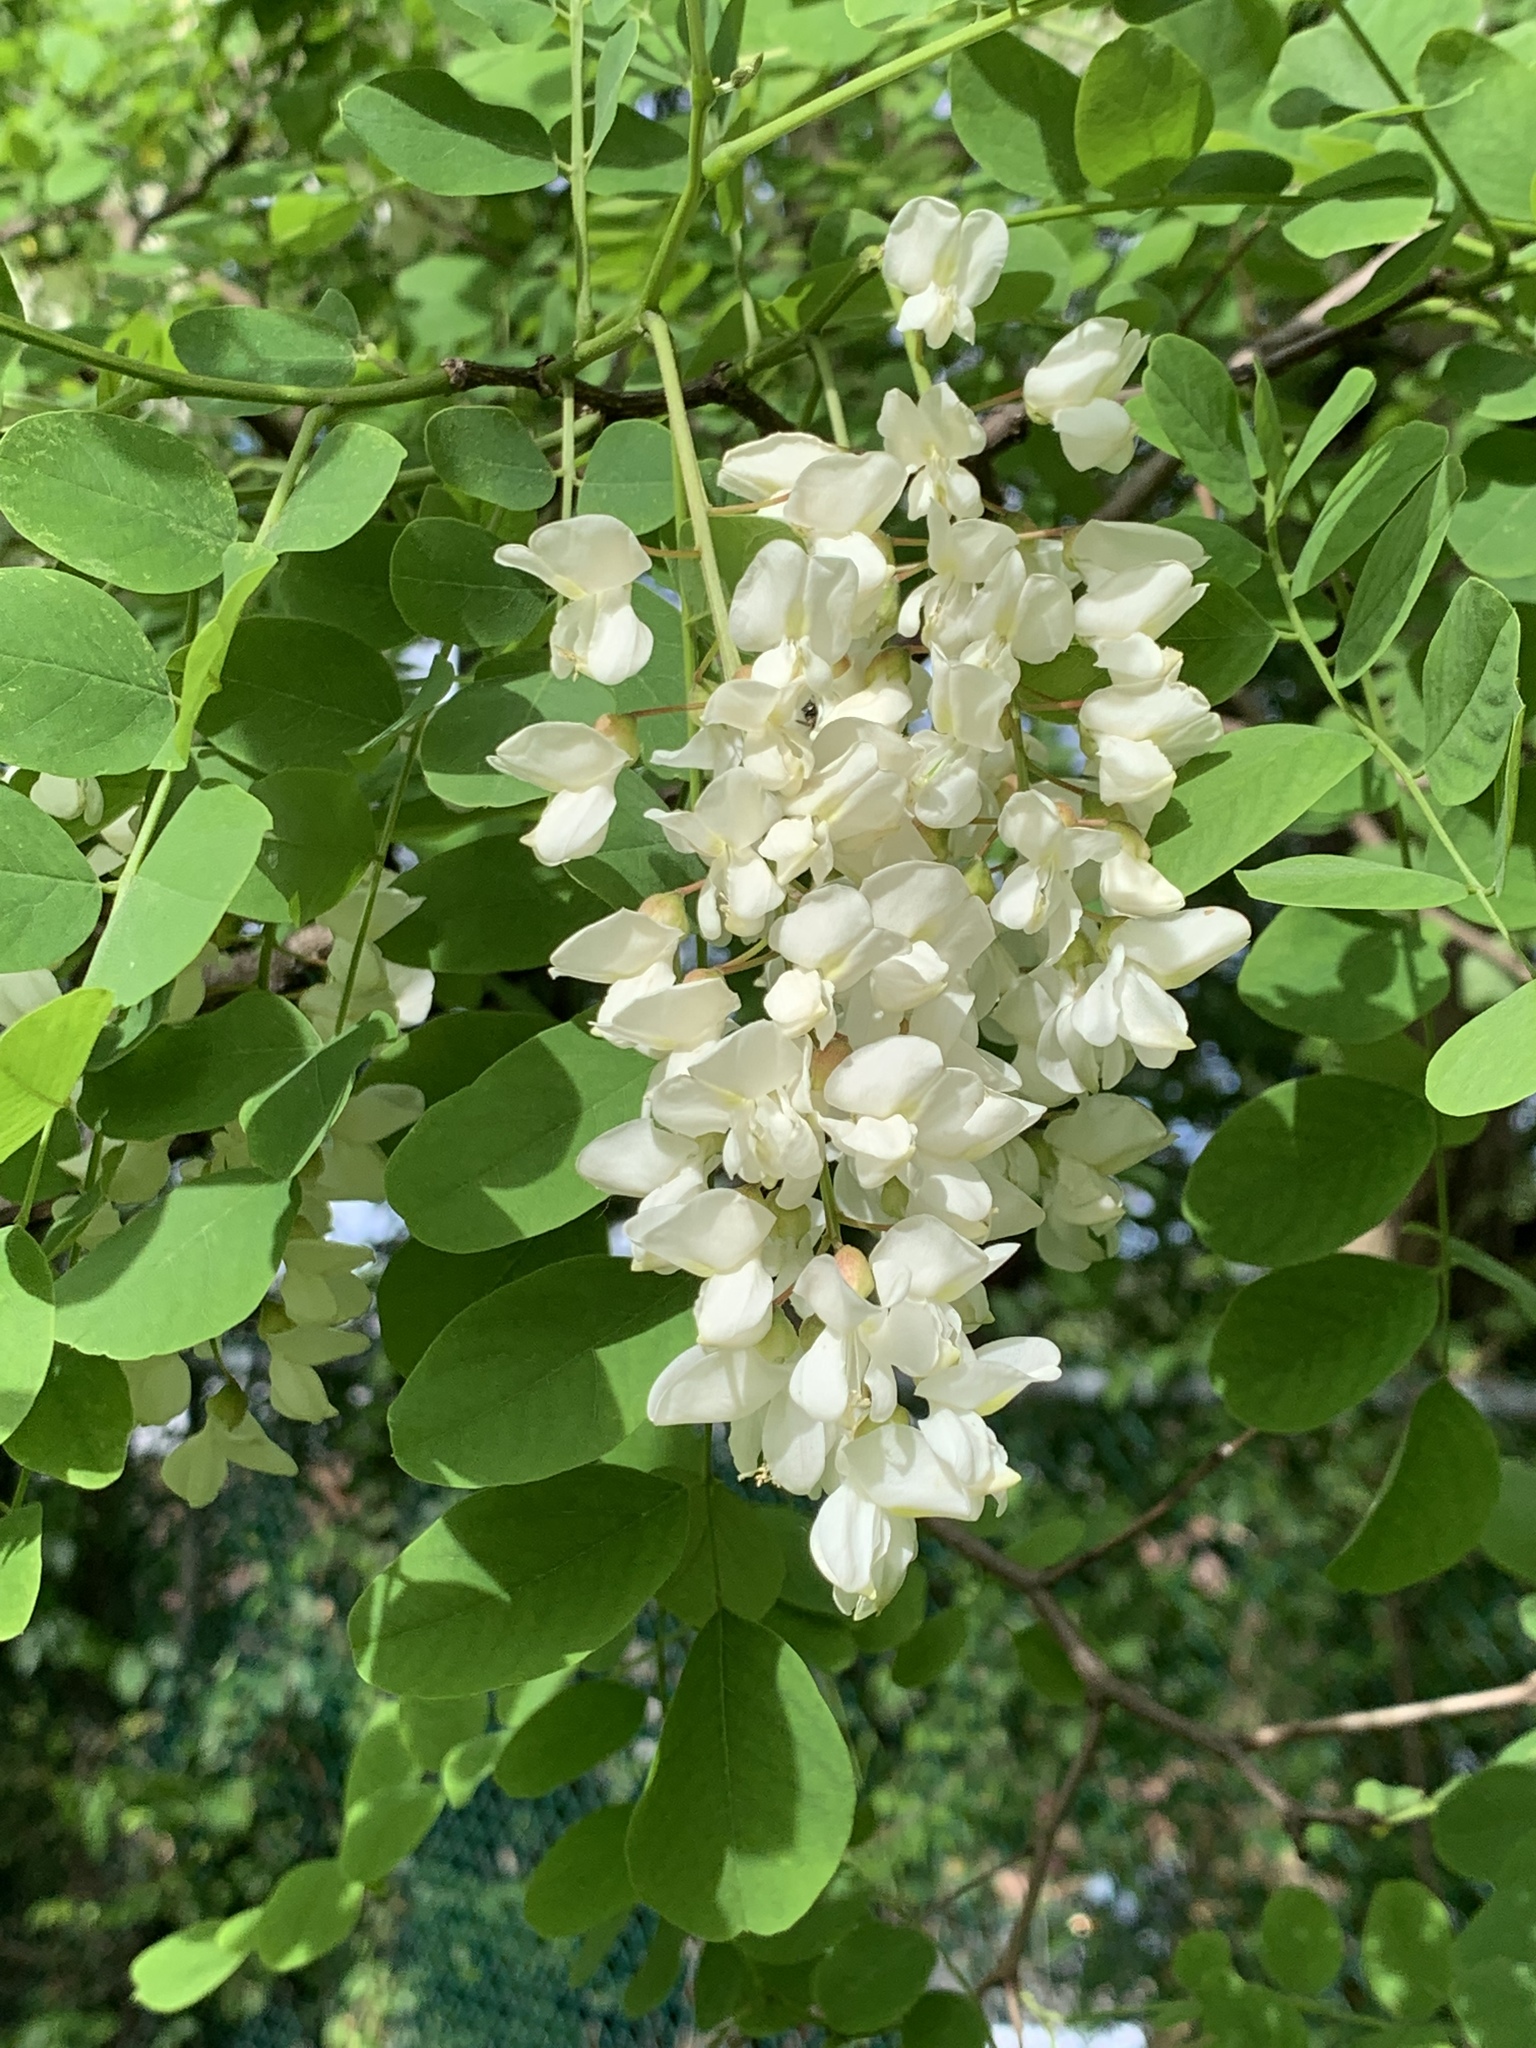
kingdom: Plantae
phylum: Tracheophyta
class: Magnoliopsida
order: Fabales
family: Fabaceae
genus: Robinia
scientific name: Robinia pseudoacacia
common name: Black locust
